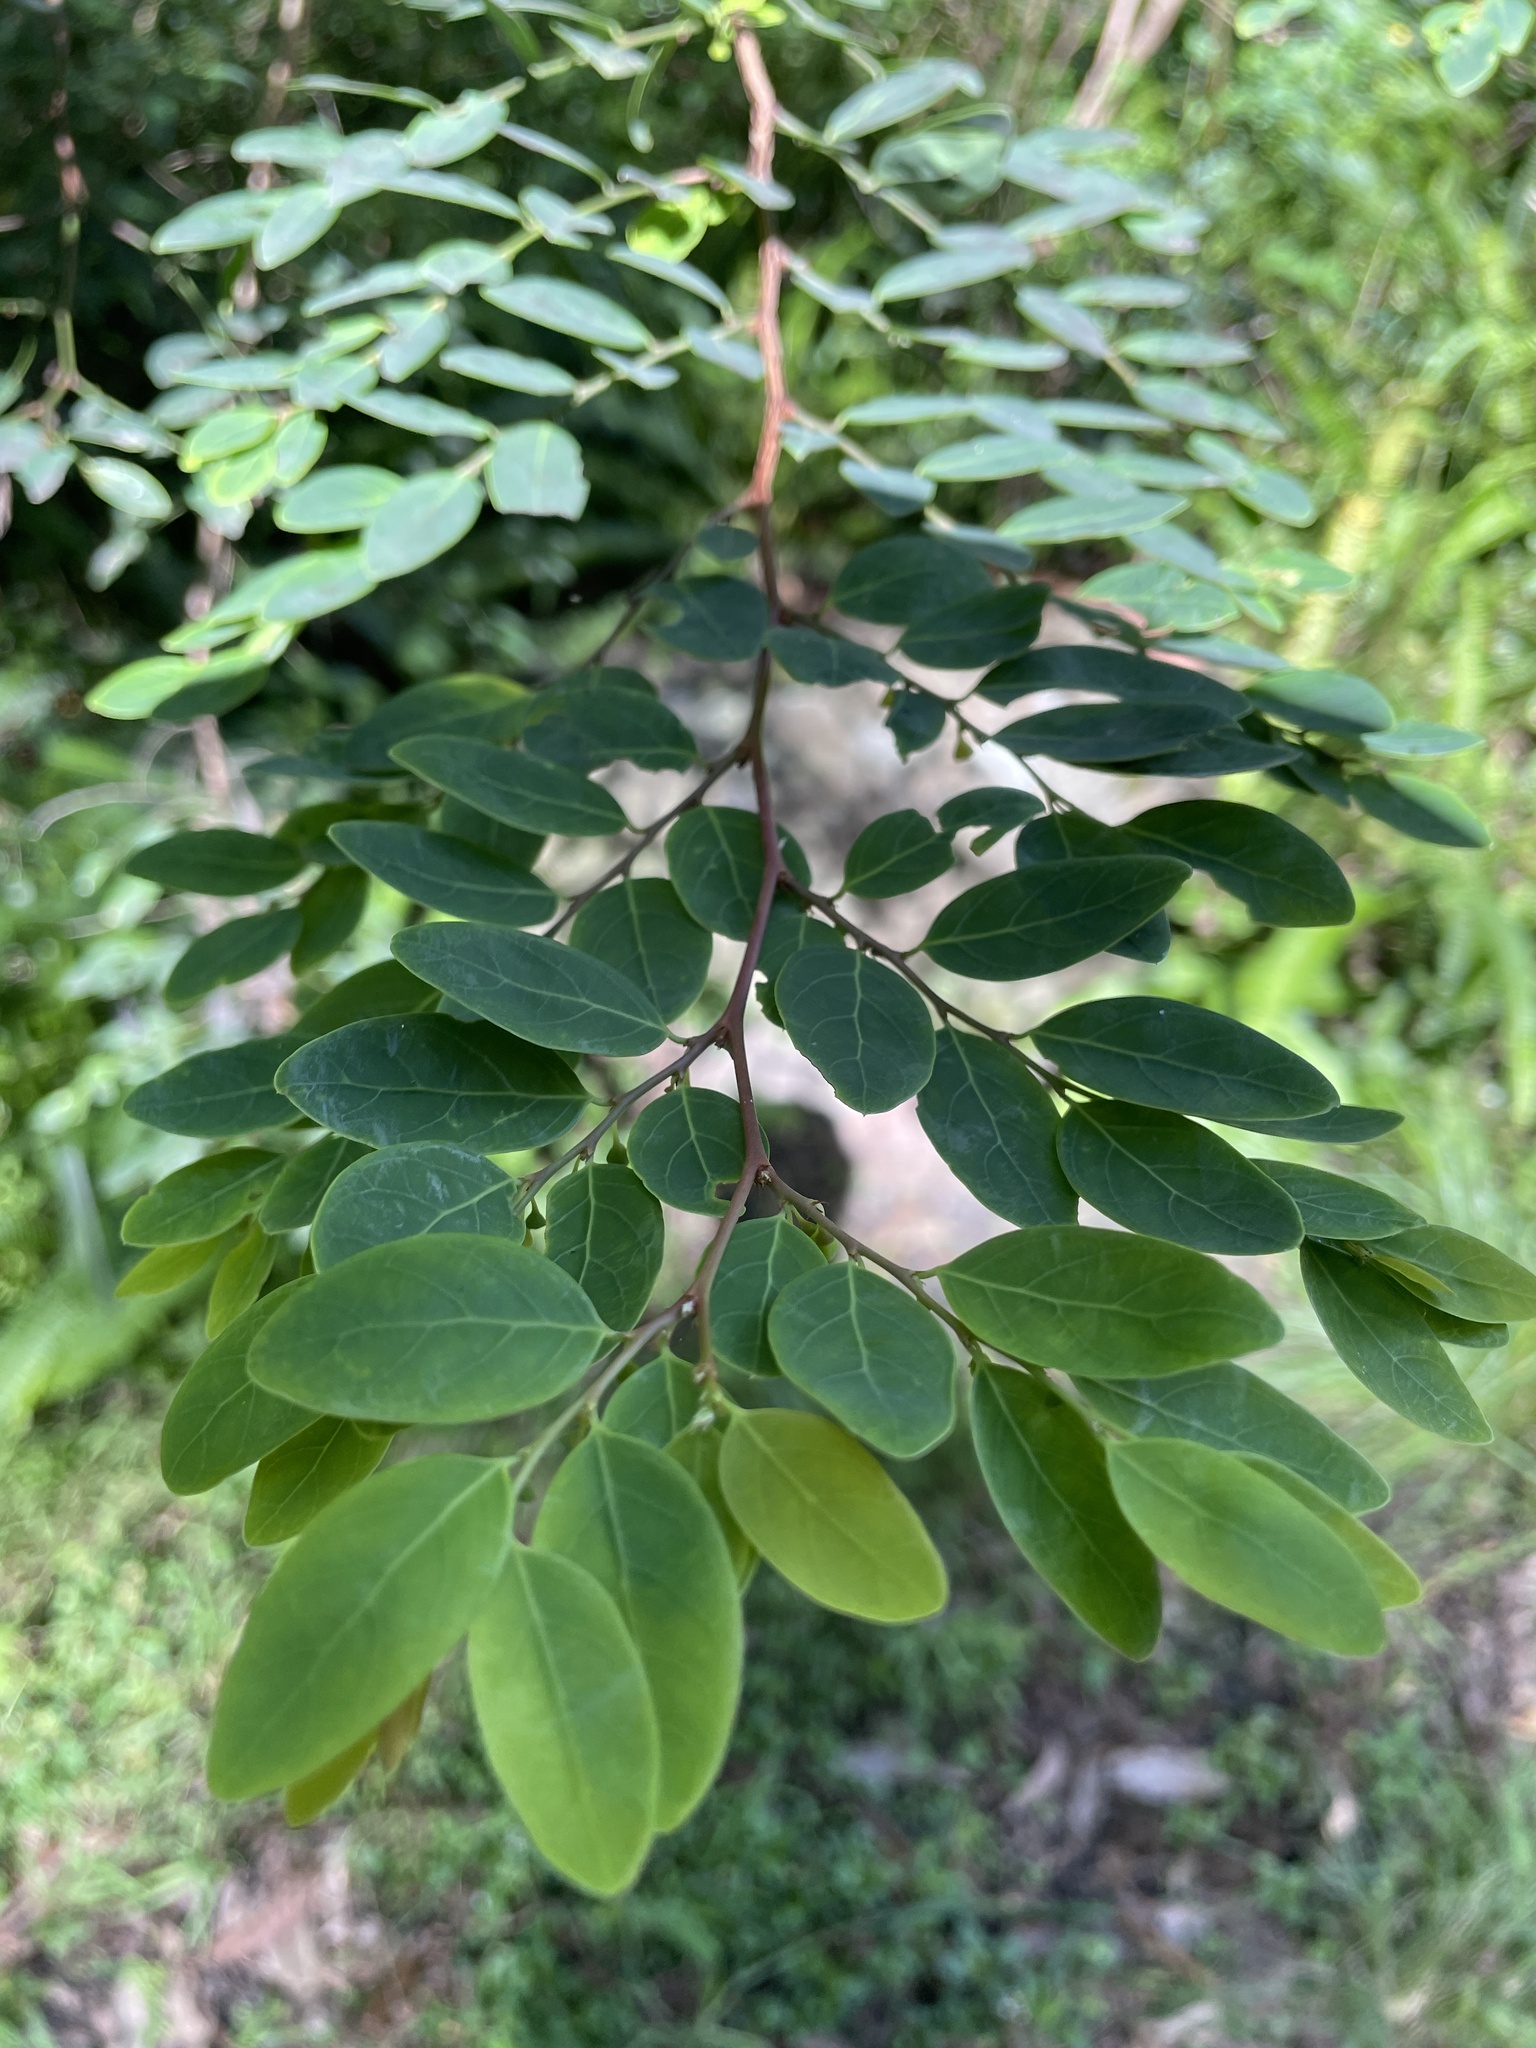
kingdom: Plantae
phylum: Tracheophyta
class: Magnoliopsida
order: Malpighiales
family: Phyllanthaceae
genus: Breynia
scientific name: Breynia oblongifolia
